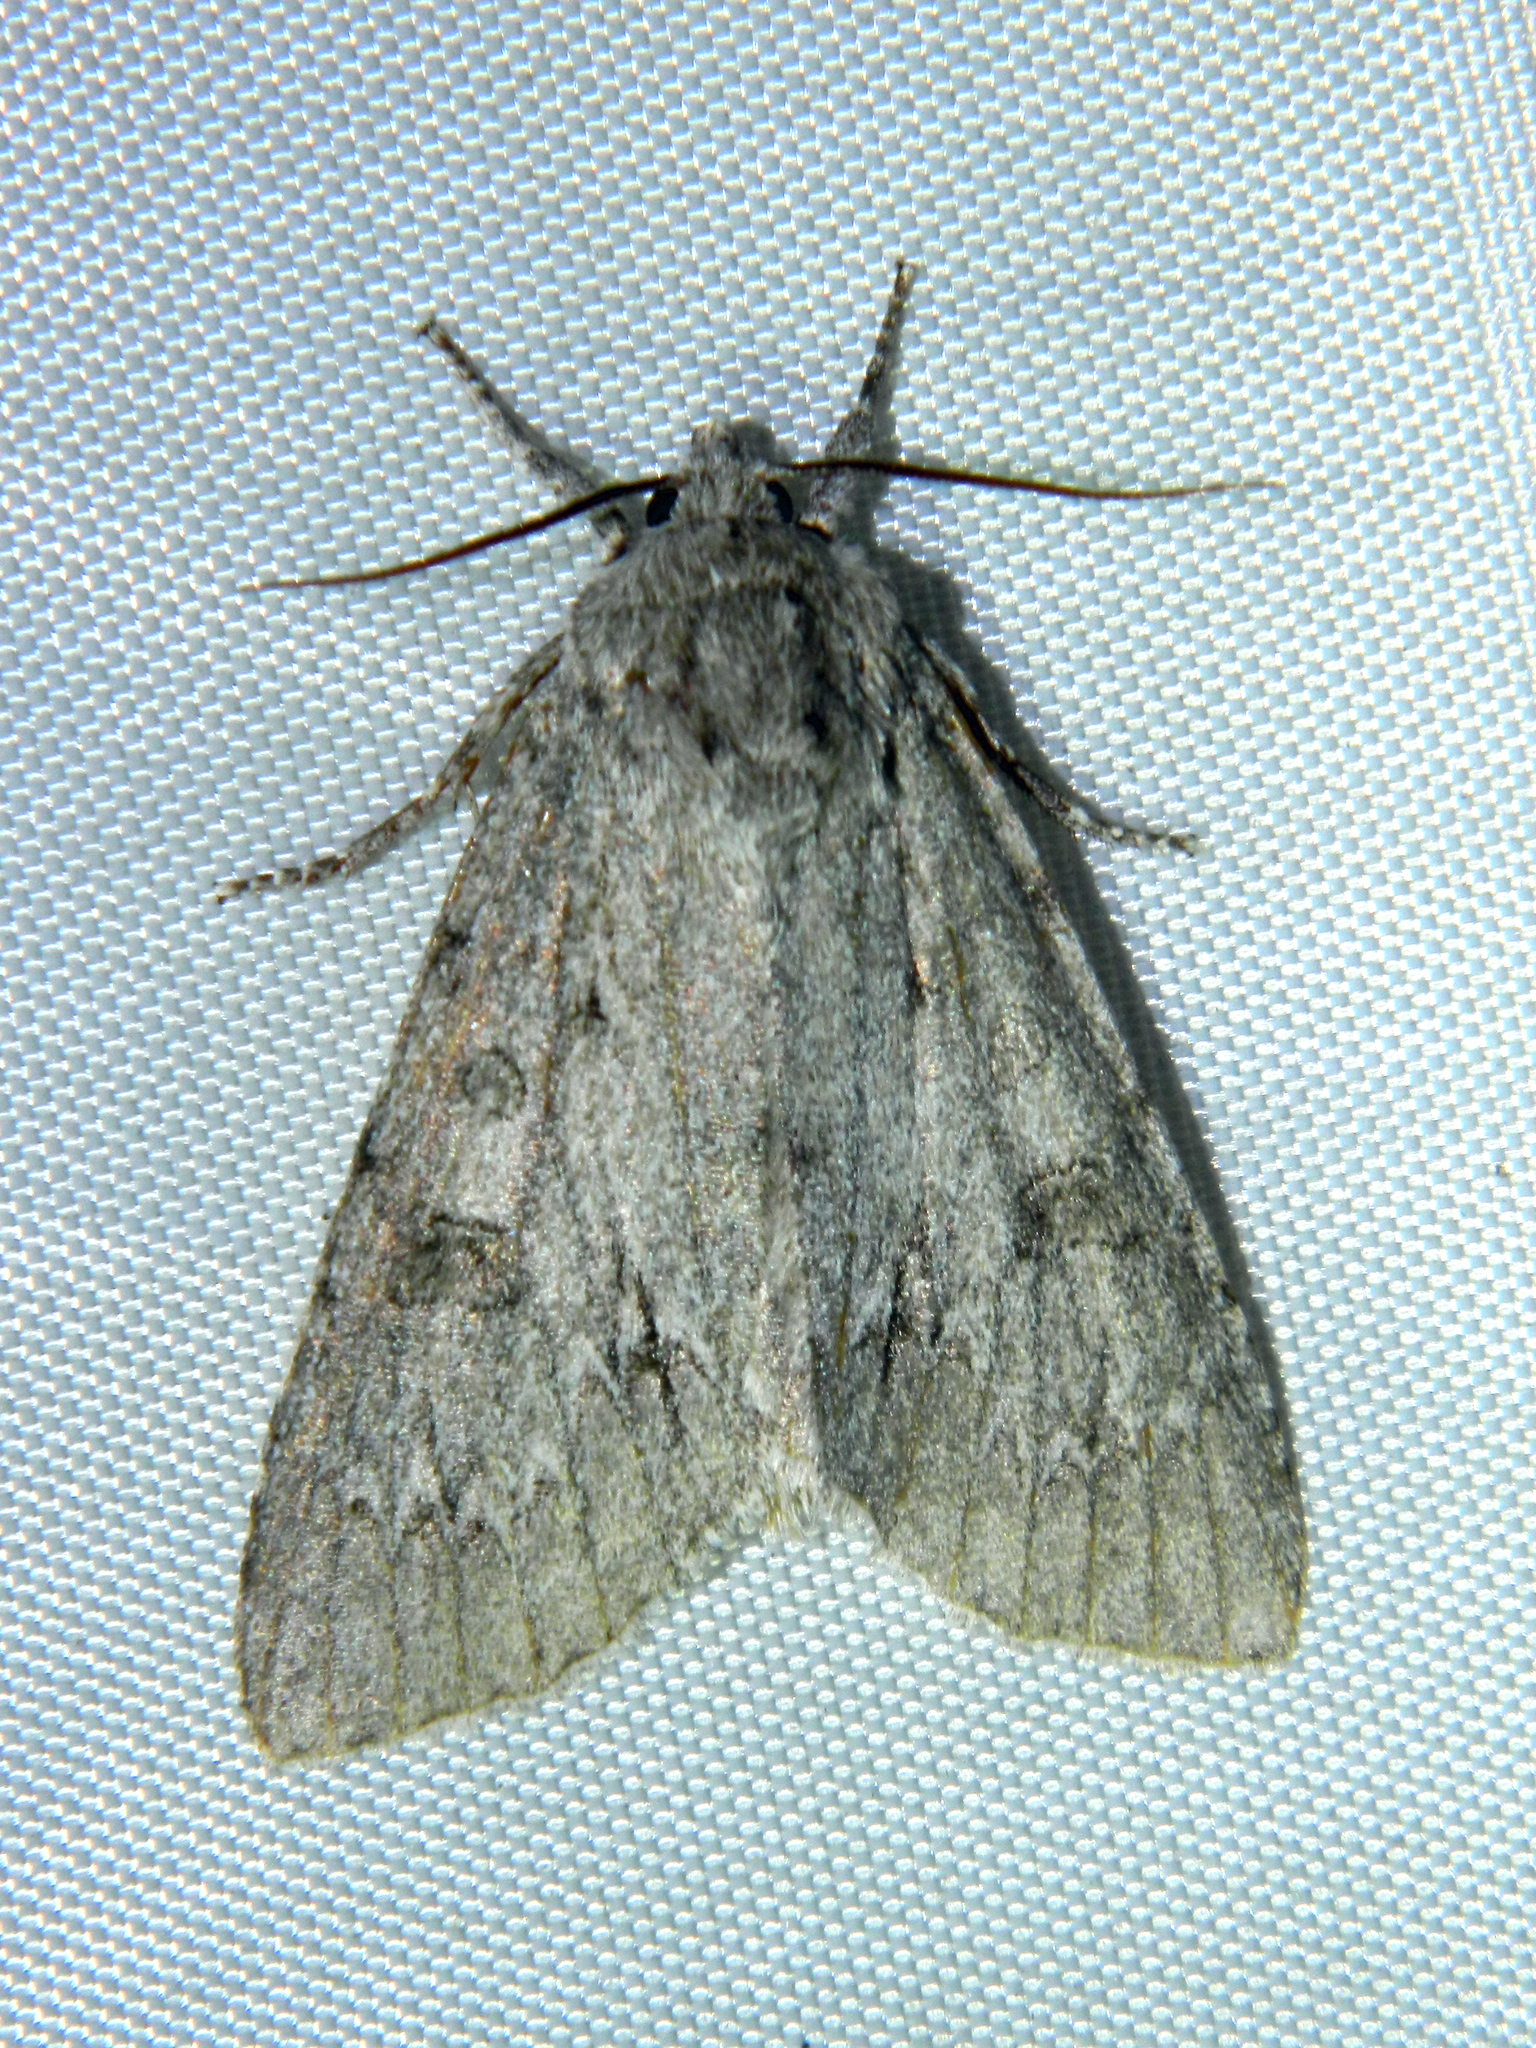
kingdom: Animalia
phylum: Arthropoda
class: Insecta
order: Lepidoptera
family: Noctuidae
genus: Acronicta
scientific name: Acronicta americana
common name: American dagger
